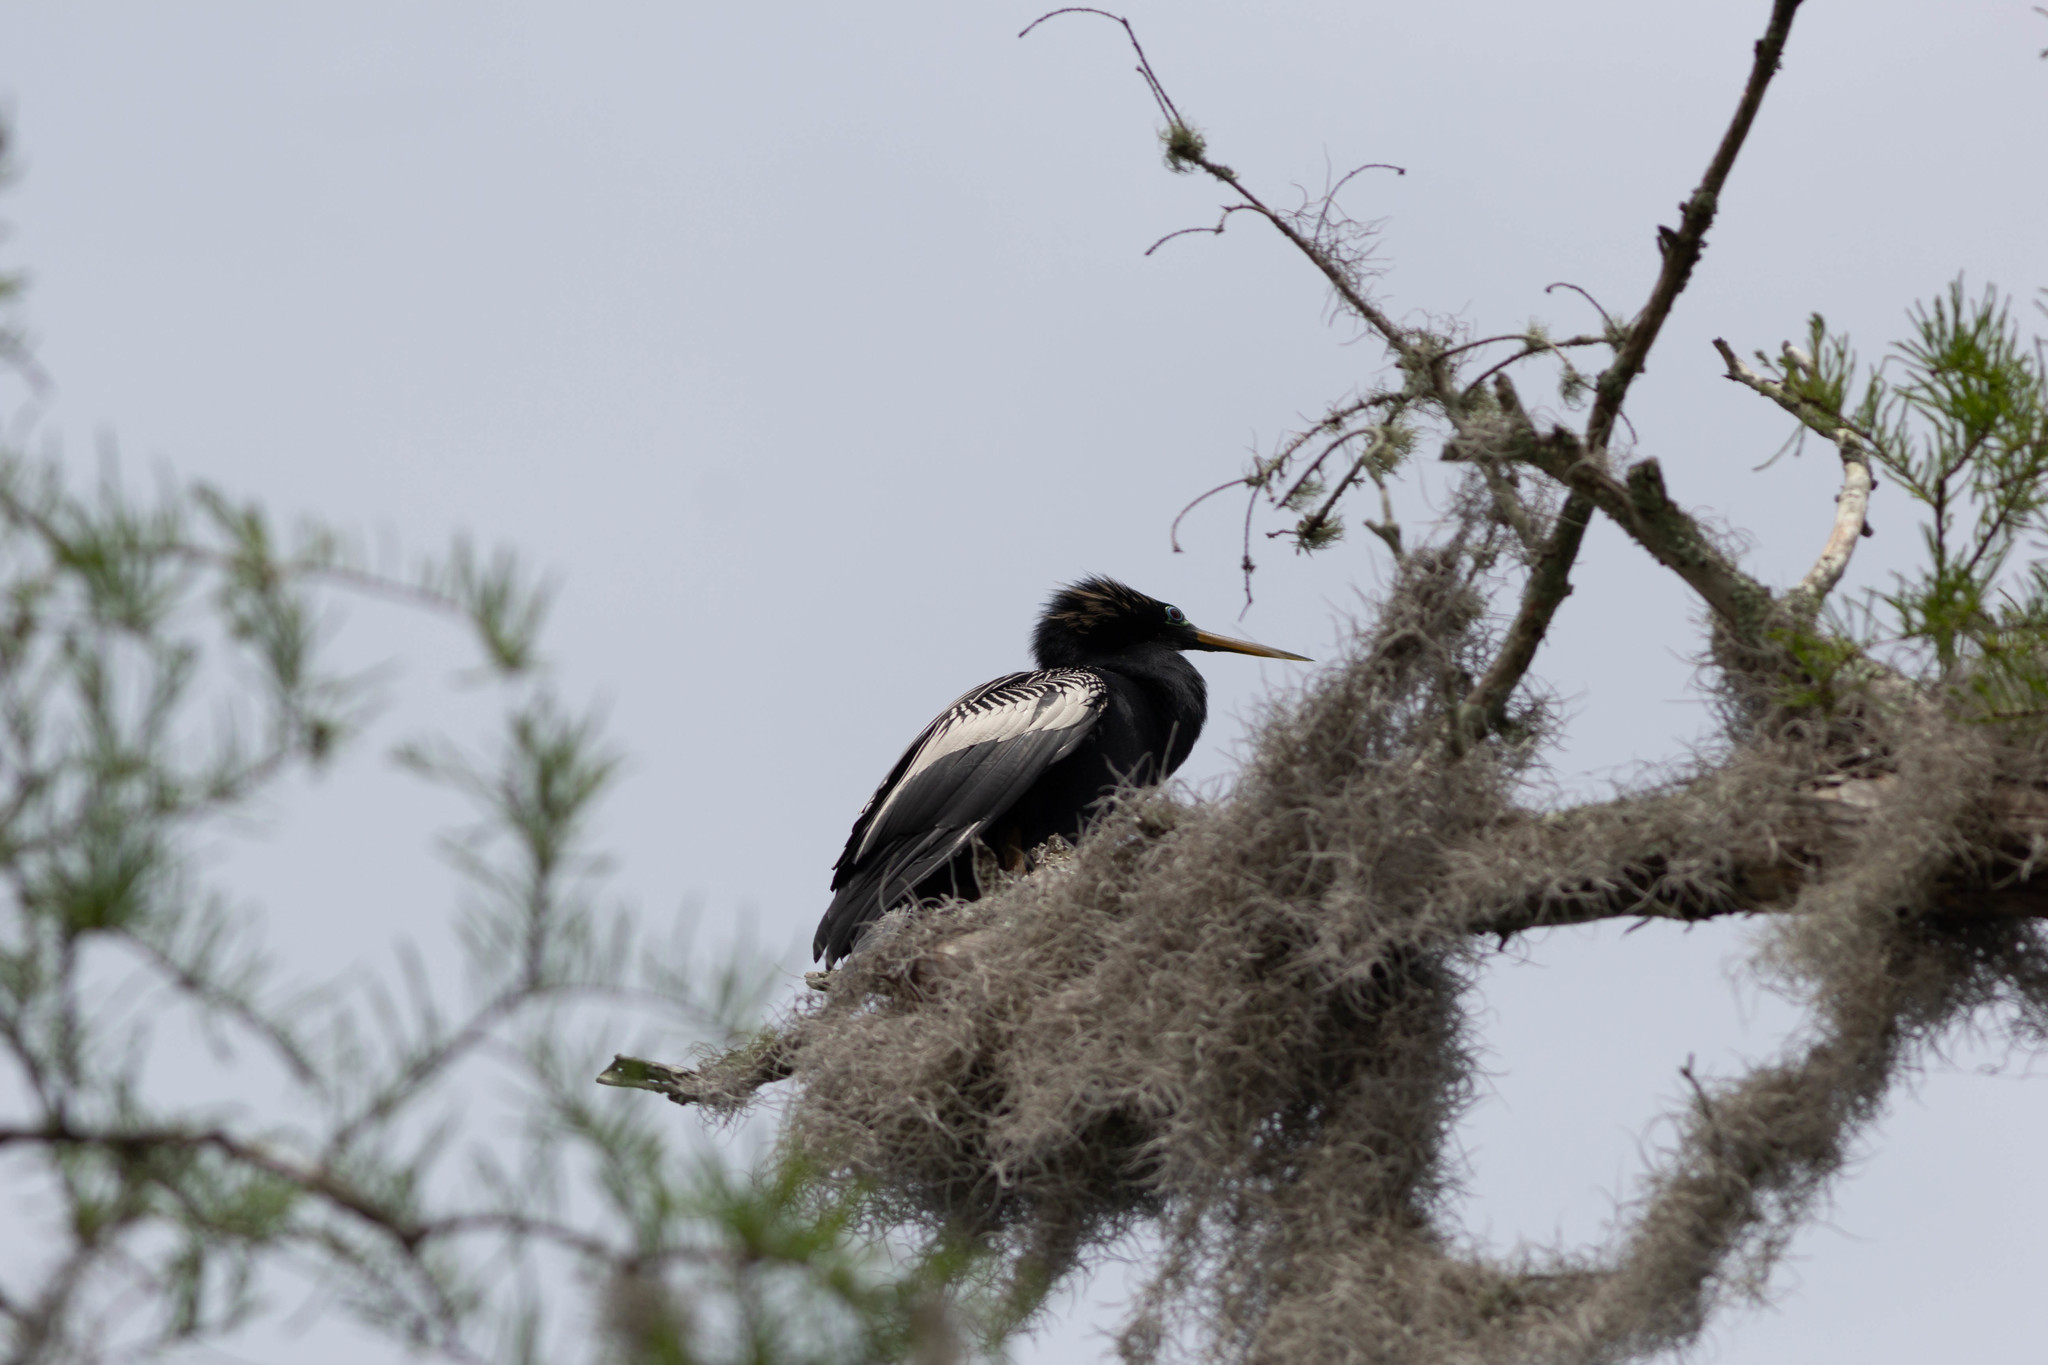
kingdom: Animalia
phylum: Chordata
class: Aves
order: Suliformes
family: Anhingidae
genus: Anhinga
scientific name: Anhinga anhinga
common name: Anhinga
